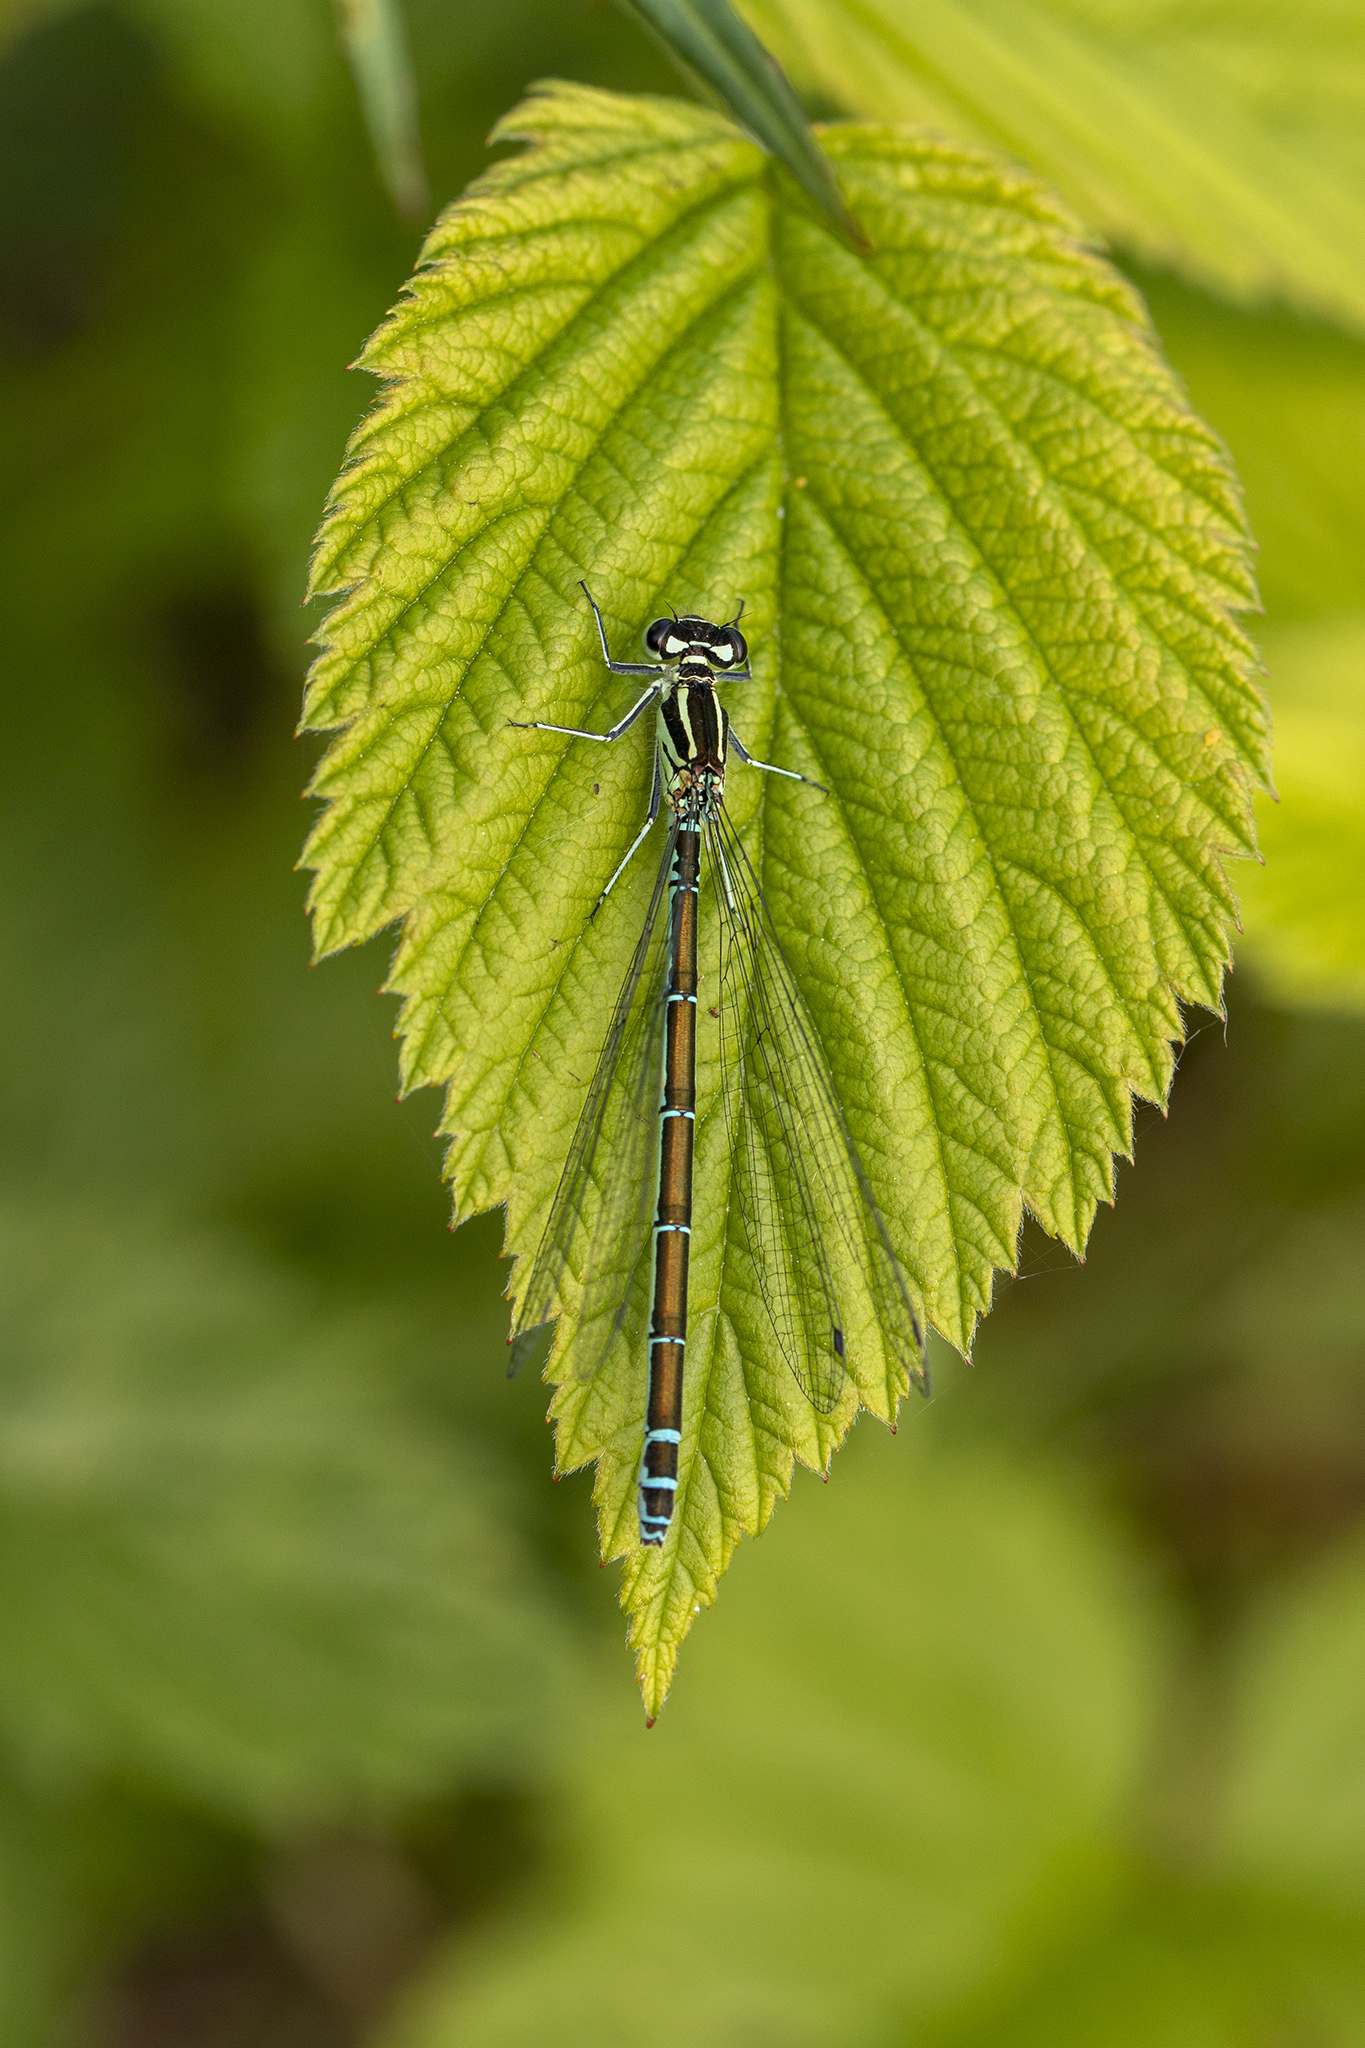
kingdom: Animalia
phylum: Arthropoda
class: Insecta
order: Odonata
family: Coenagrionidae
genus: Coenagrion
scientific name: Coenagrion puella
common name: Azure damselfly
